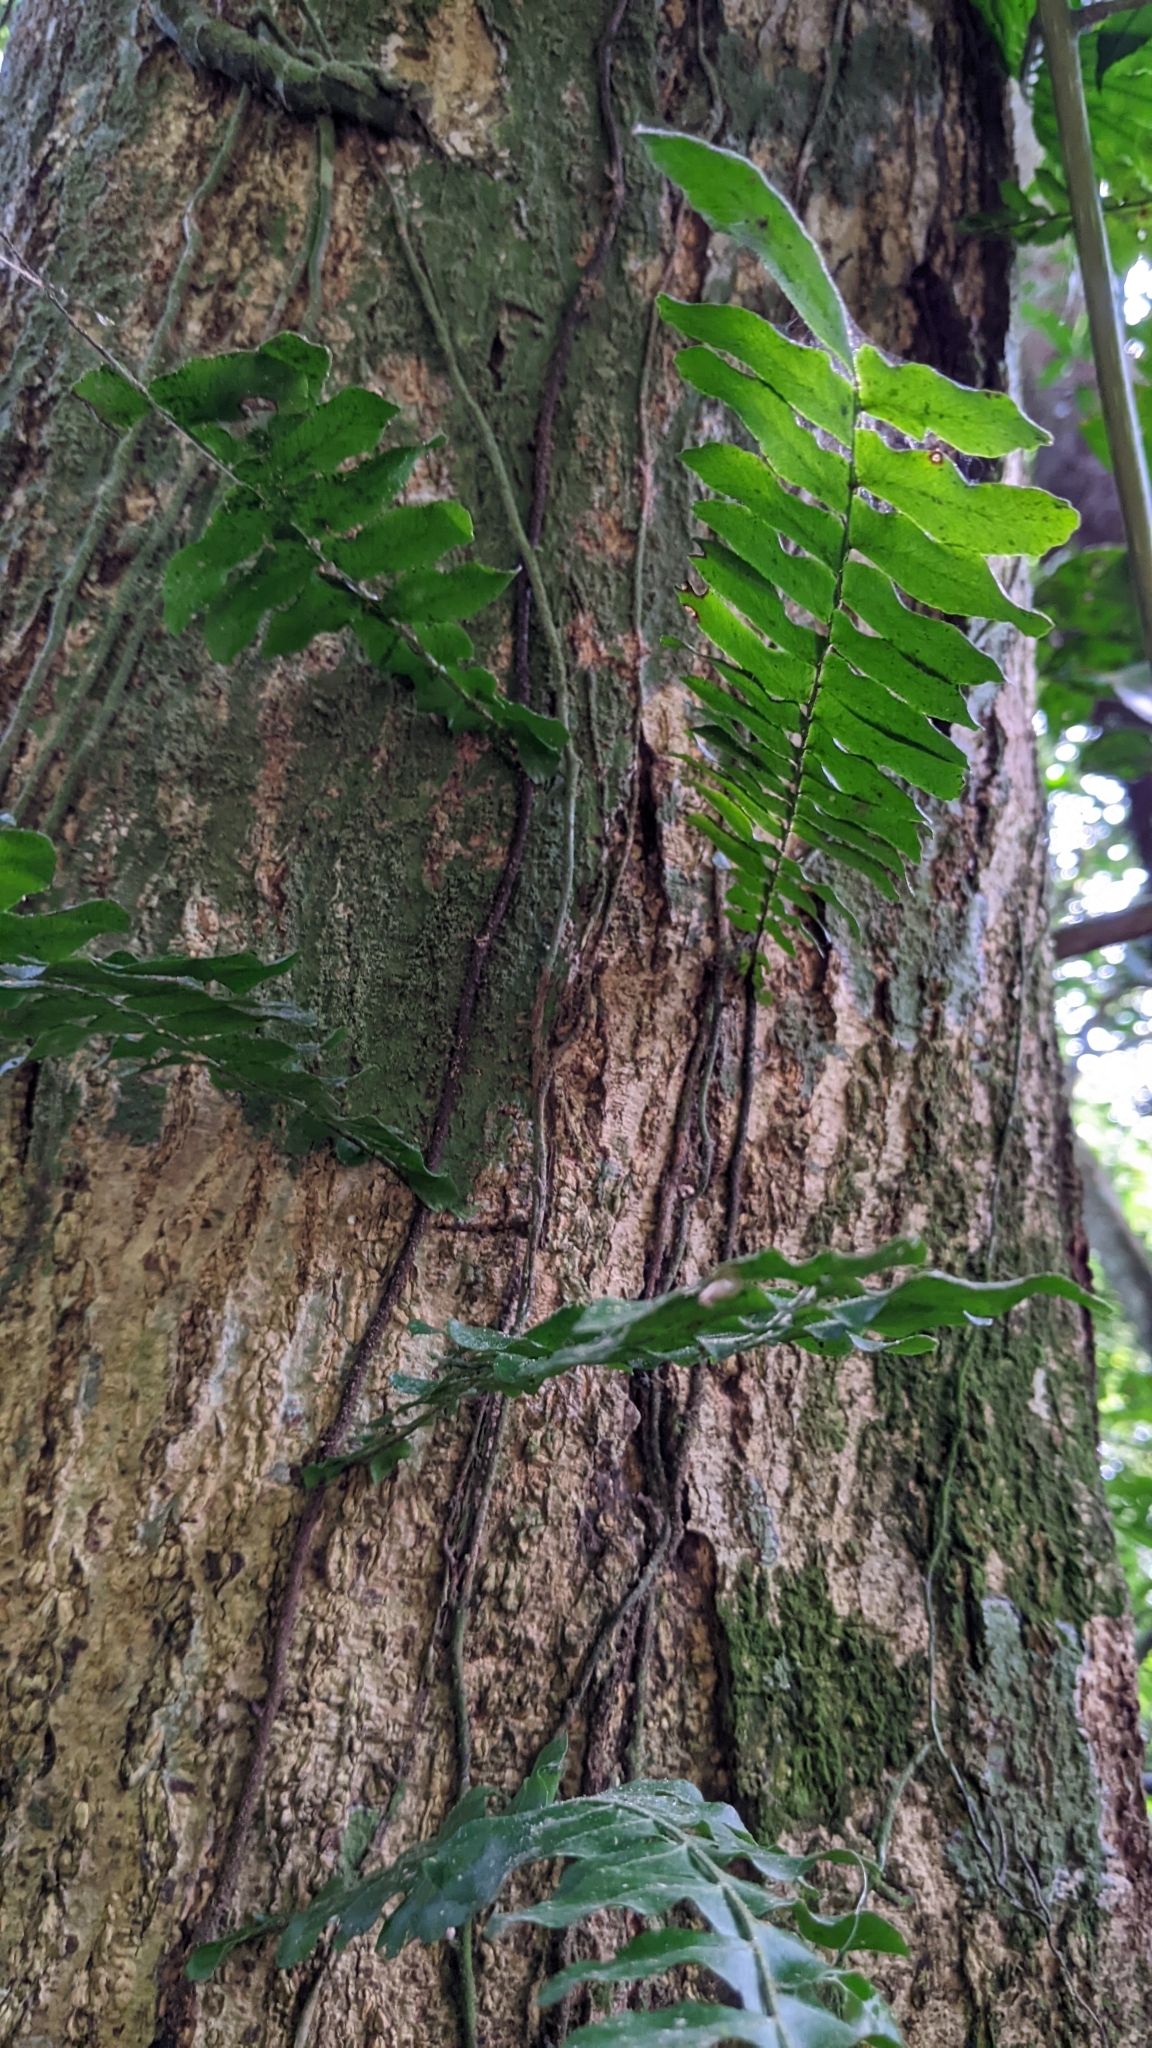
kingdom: Plantae
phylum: Tracheophyta
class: Polypodiopsida
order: Polypodiales
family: Tectariaceae
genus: Arthropteris
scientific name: Arthropteris palisotii
